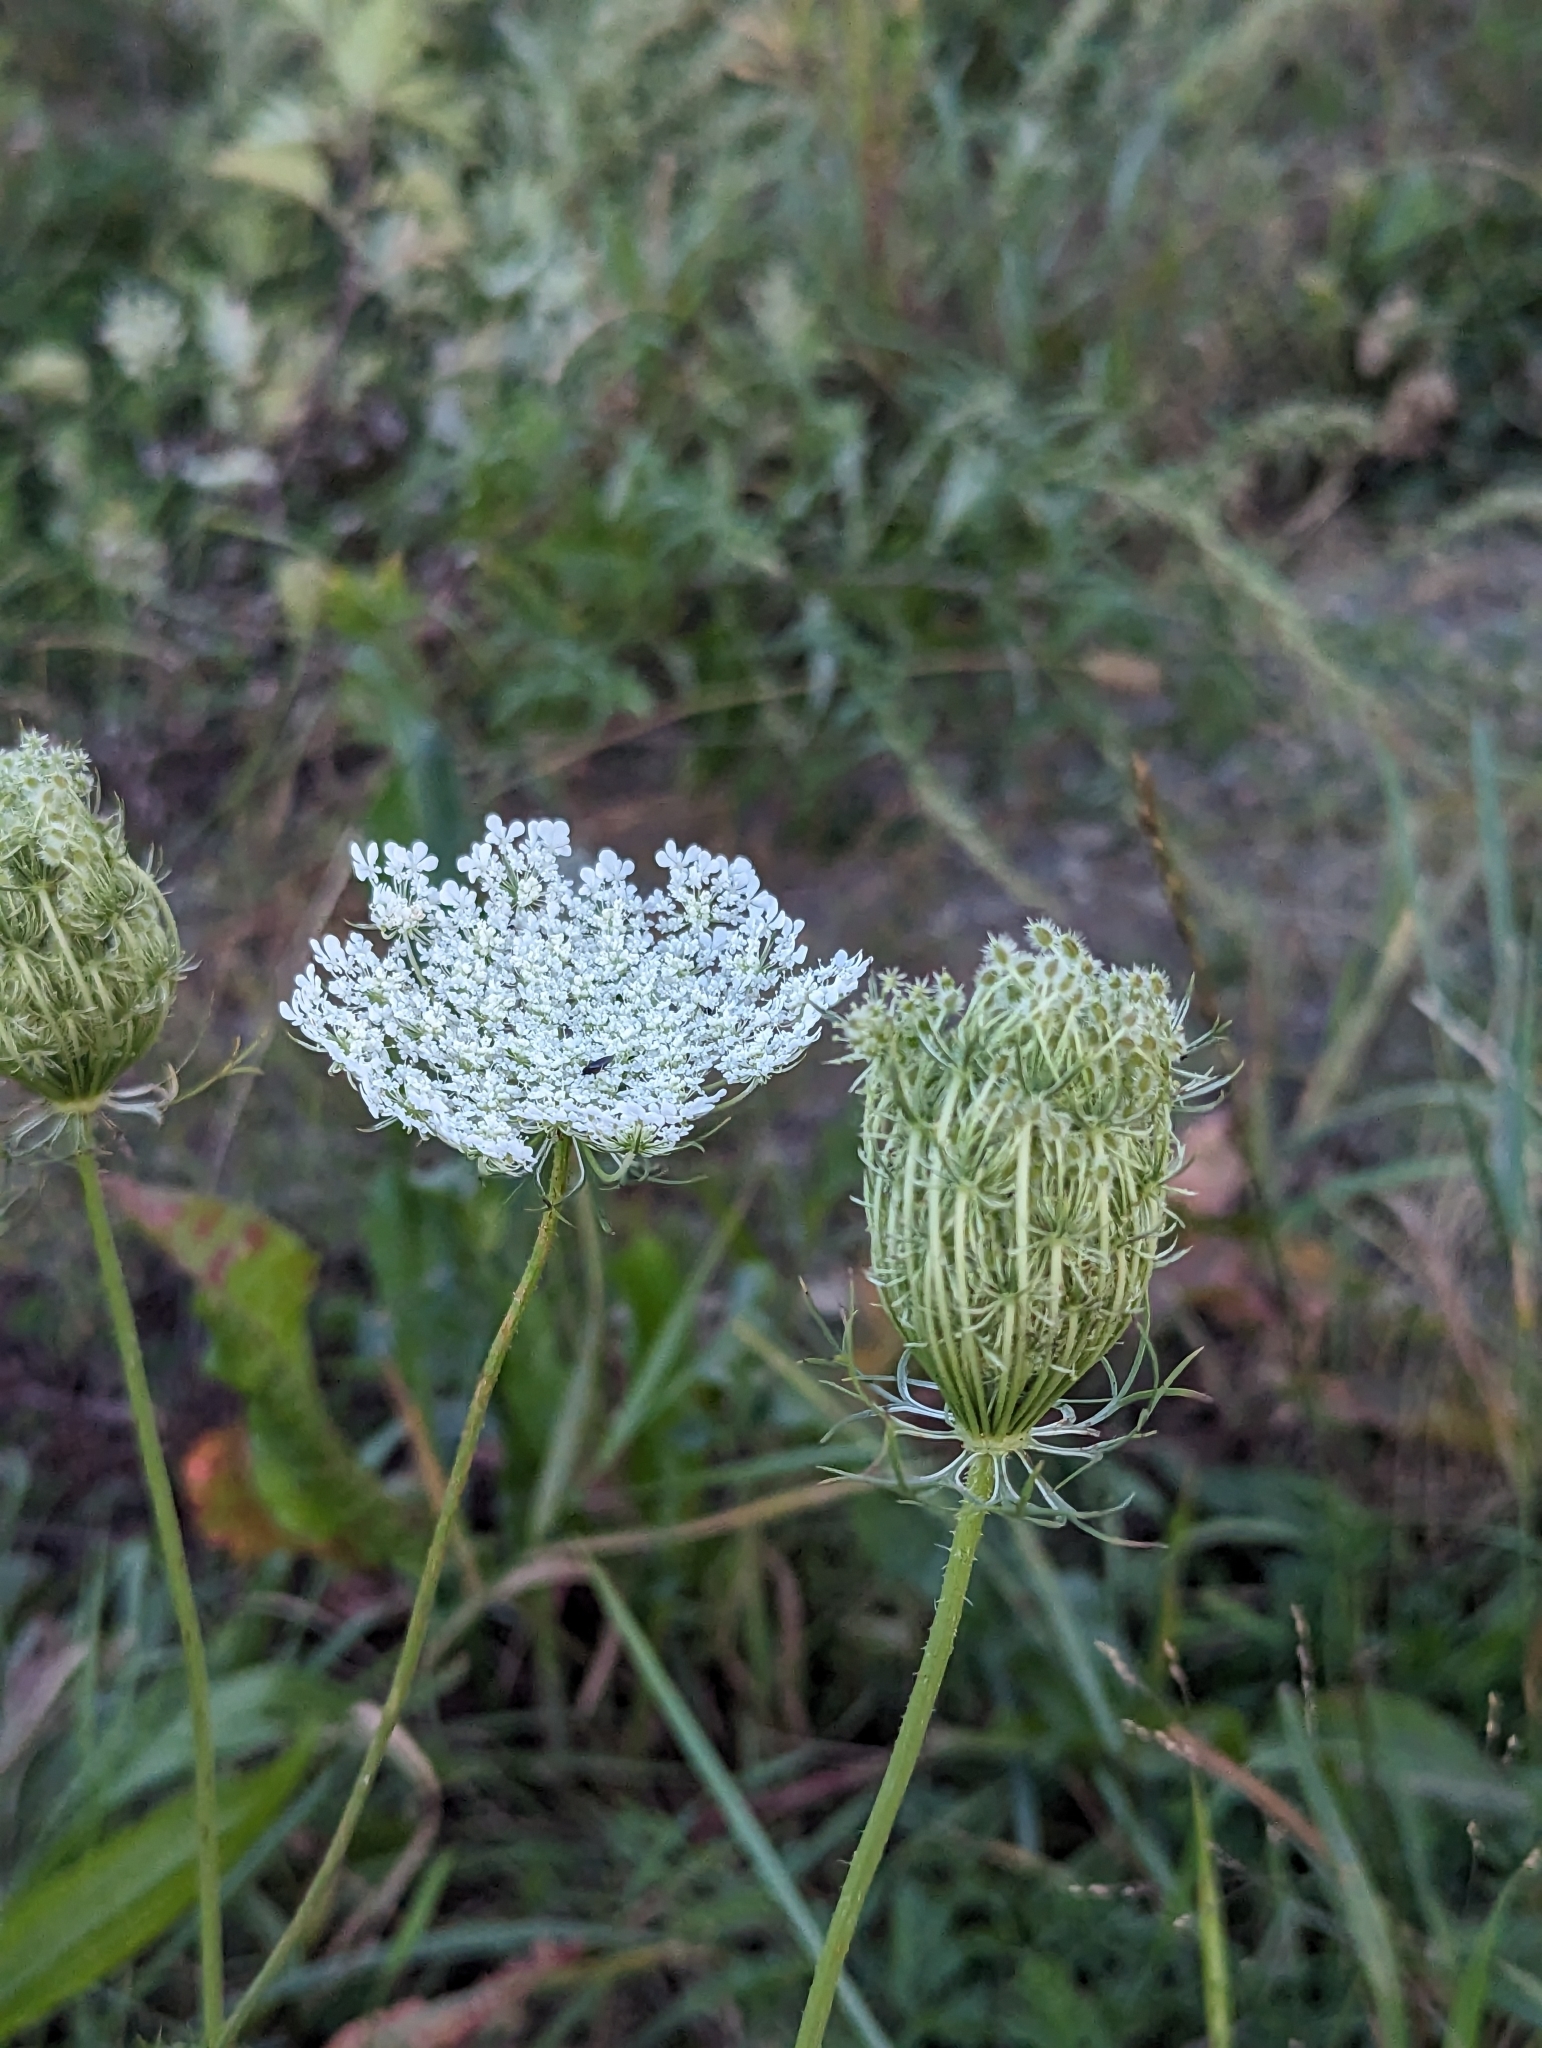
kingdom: Plantae
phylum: Tracheophyta
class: Magnoliopsida
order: Apiales
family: Apiaceae
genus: Daucus
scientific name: Daucus carota
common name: Wild carrot
